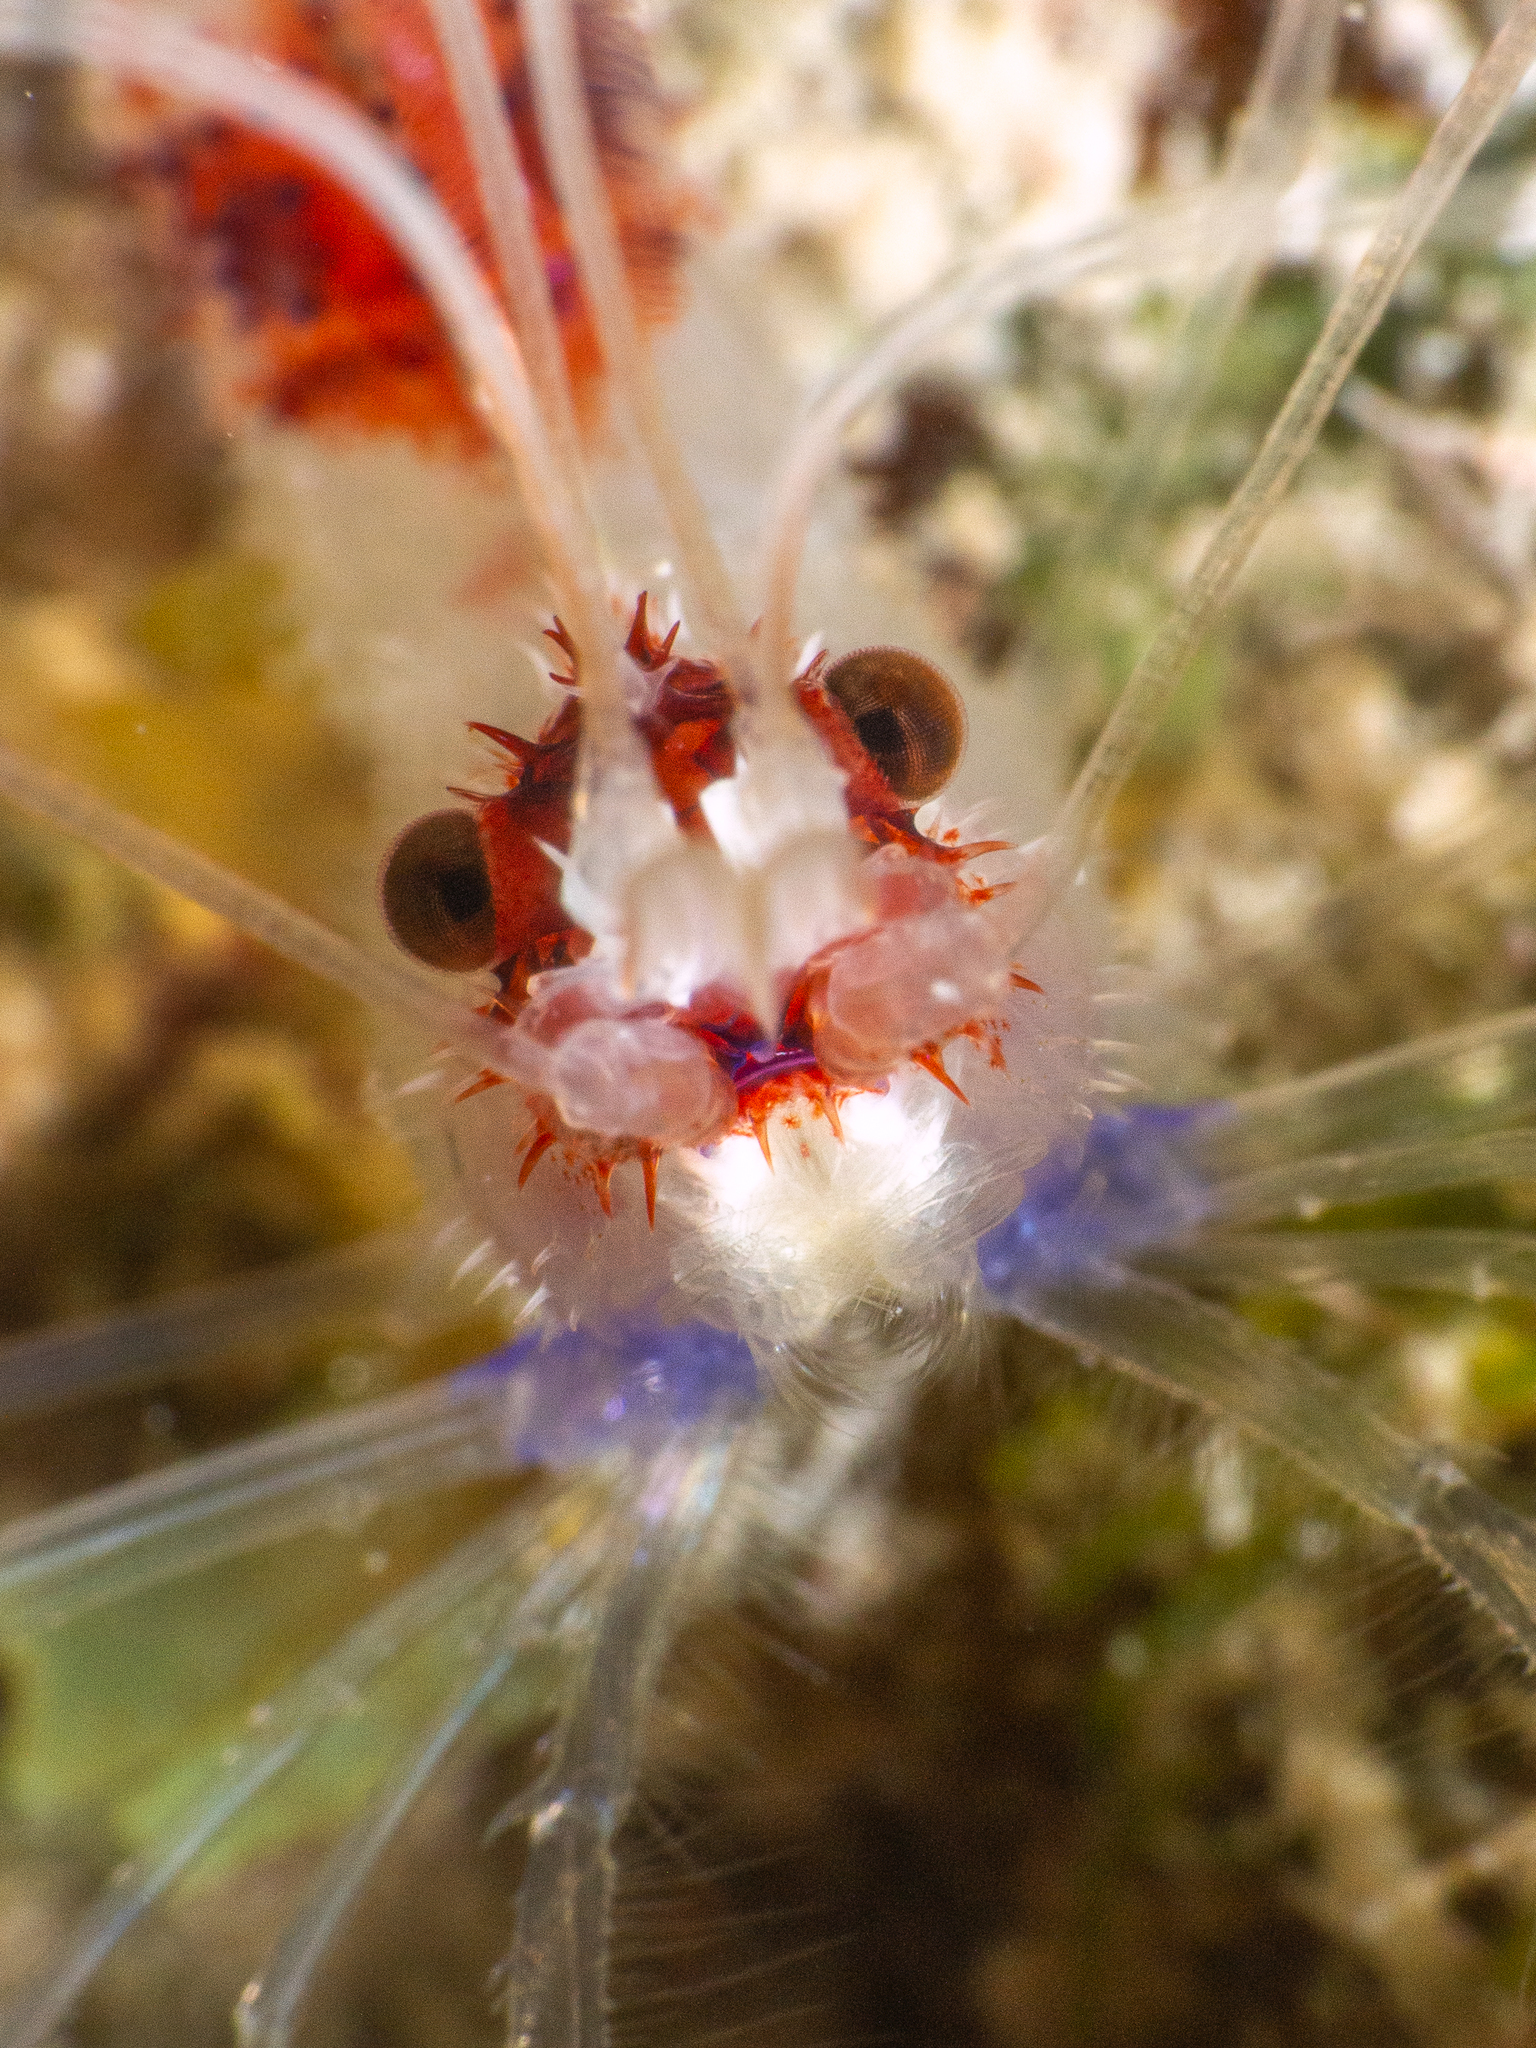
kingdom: Animalia
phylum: Arthropoda
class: Malacostraca
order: Decapoda
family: Stenopodidae
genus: Stenopus
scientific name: Stenopus hispidus
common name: Banded coral shrimp
